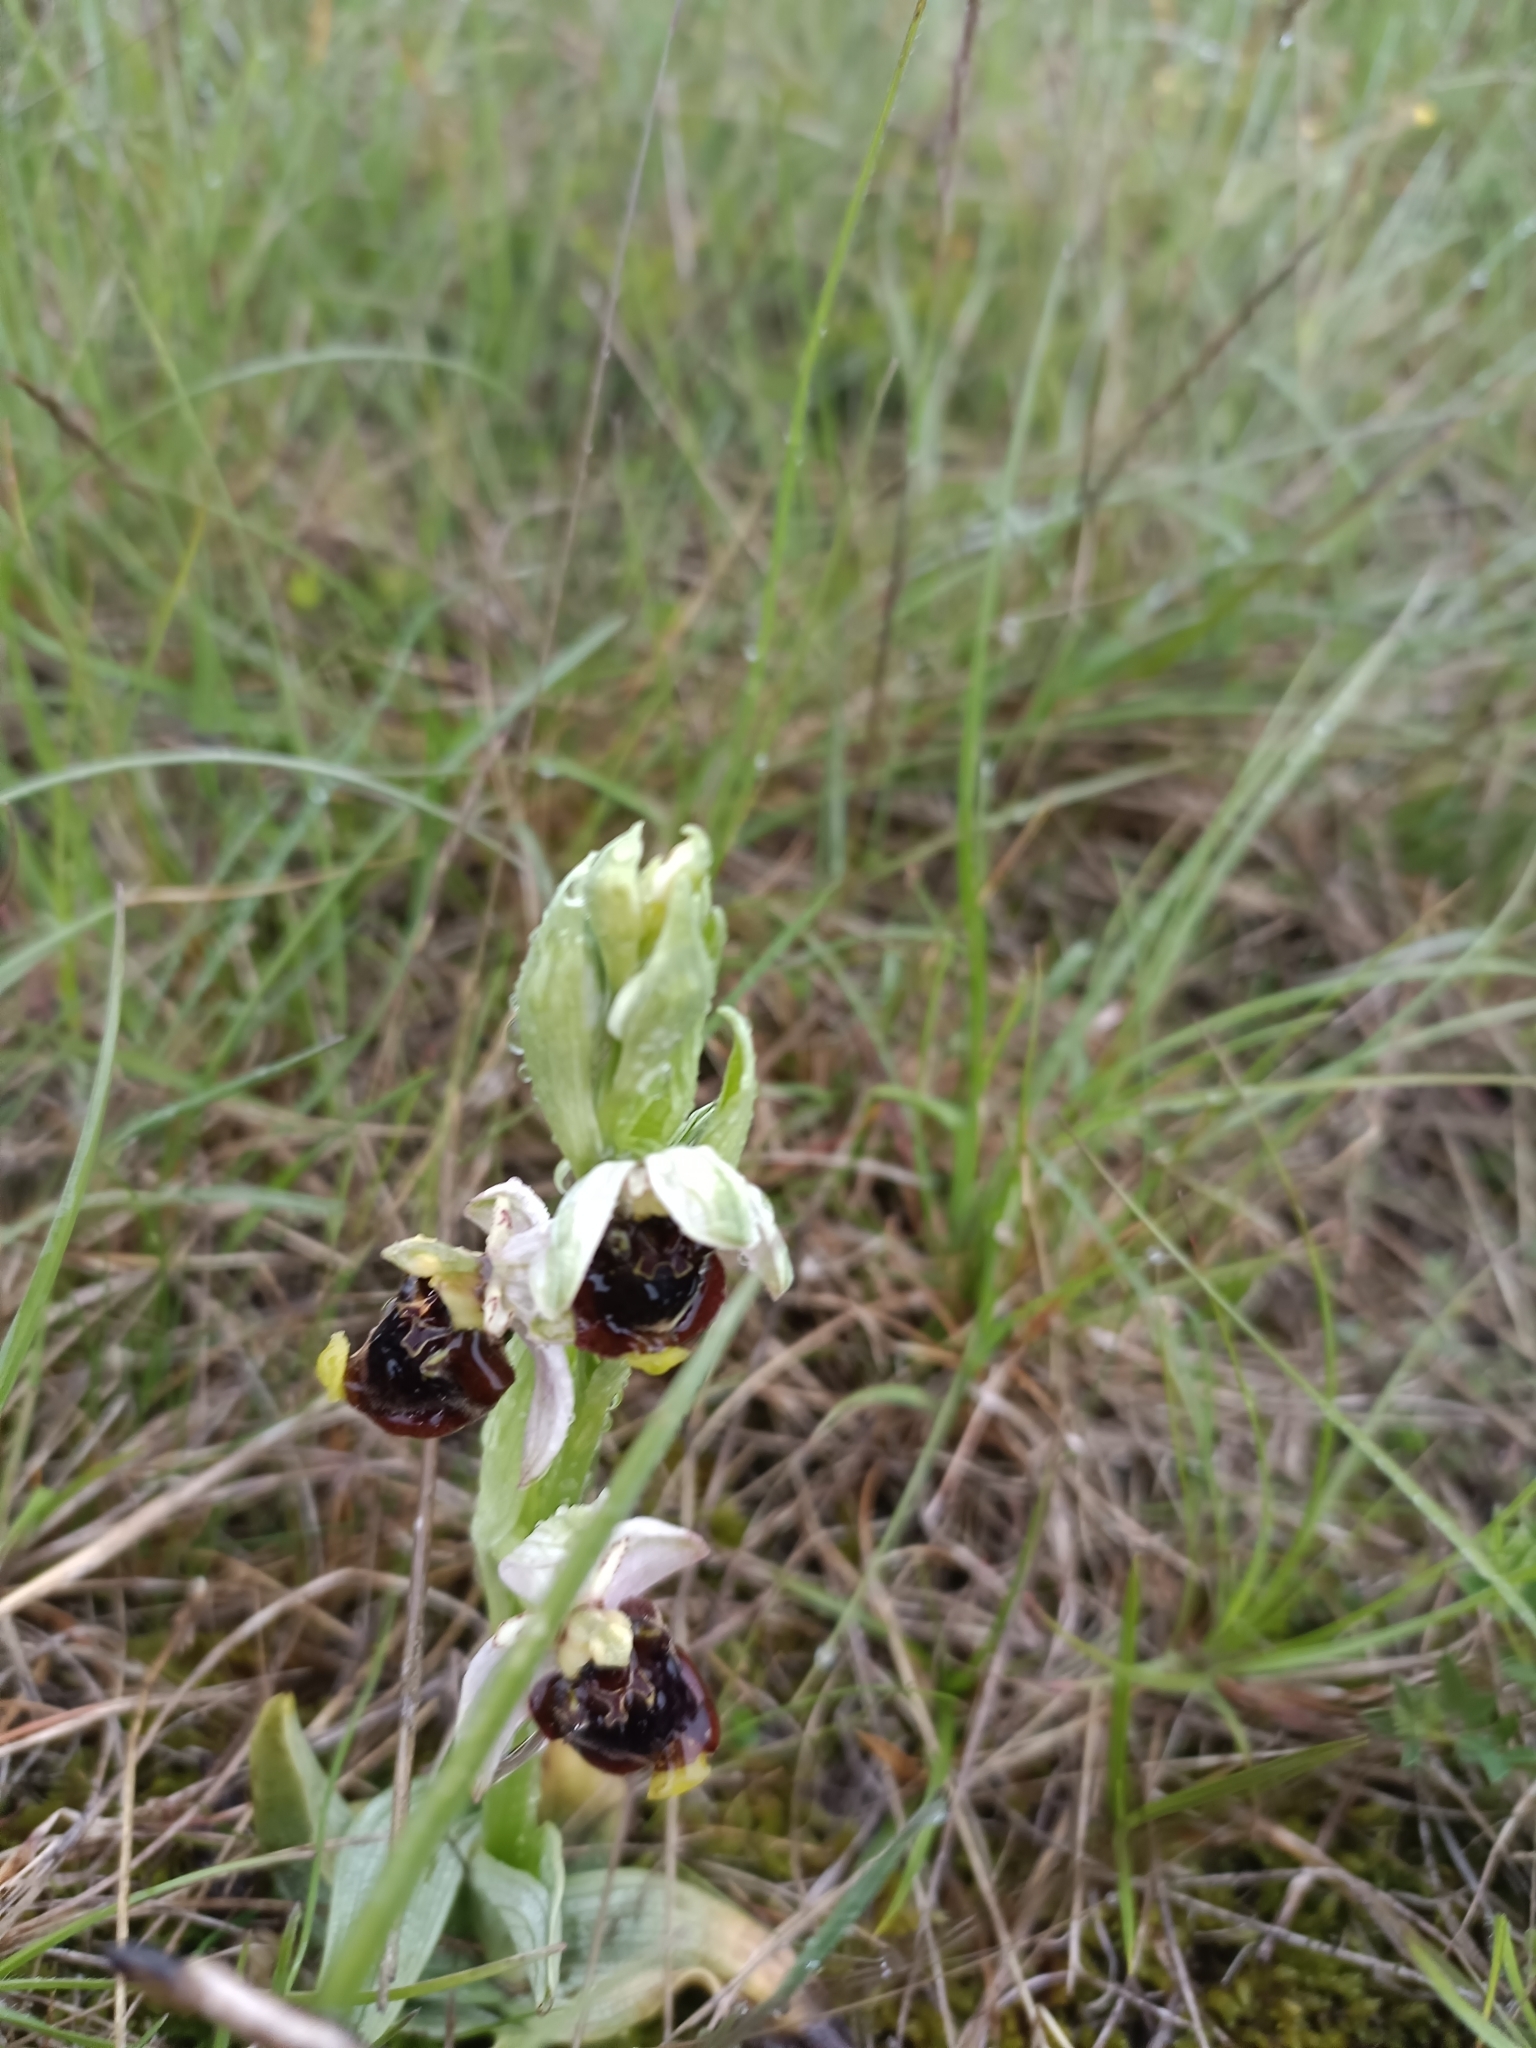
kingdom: Plantae
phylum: Tracheophyta
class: Liliopsida
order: Asparagales
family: Orchidaceae
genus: Ophrys
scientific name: Ophrys holosericea
